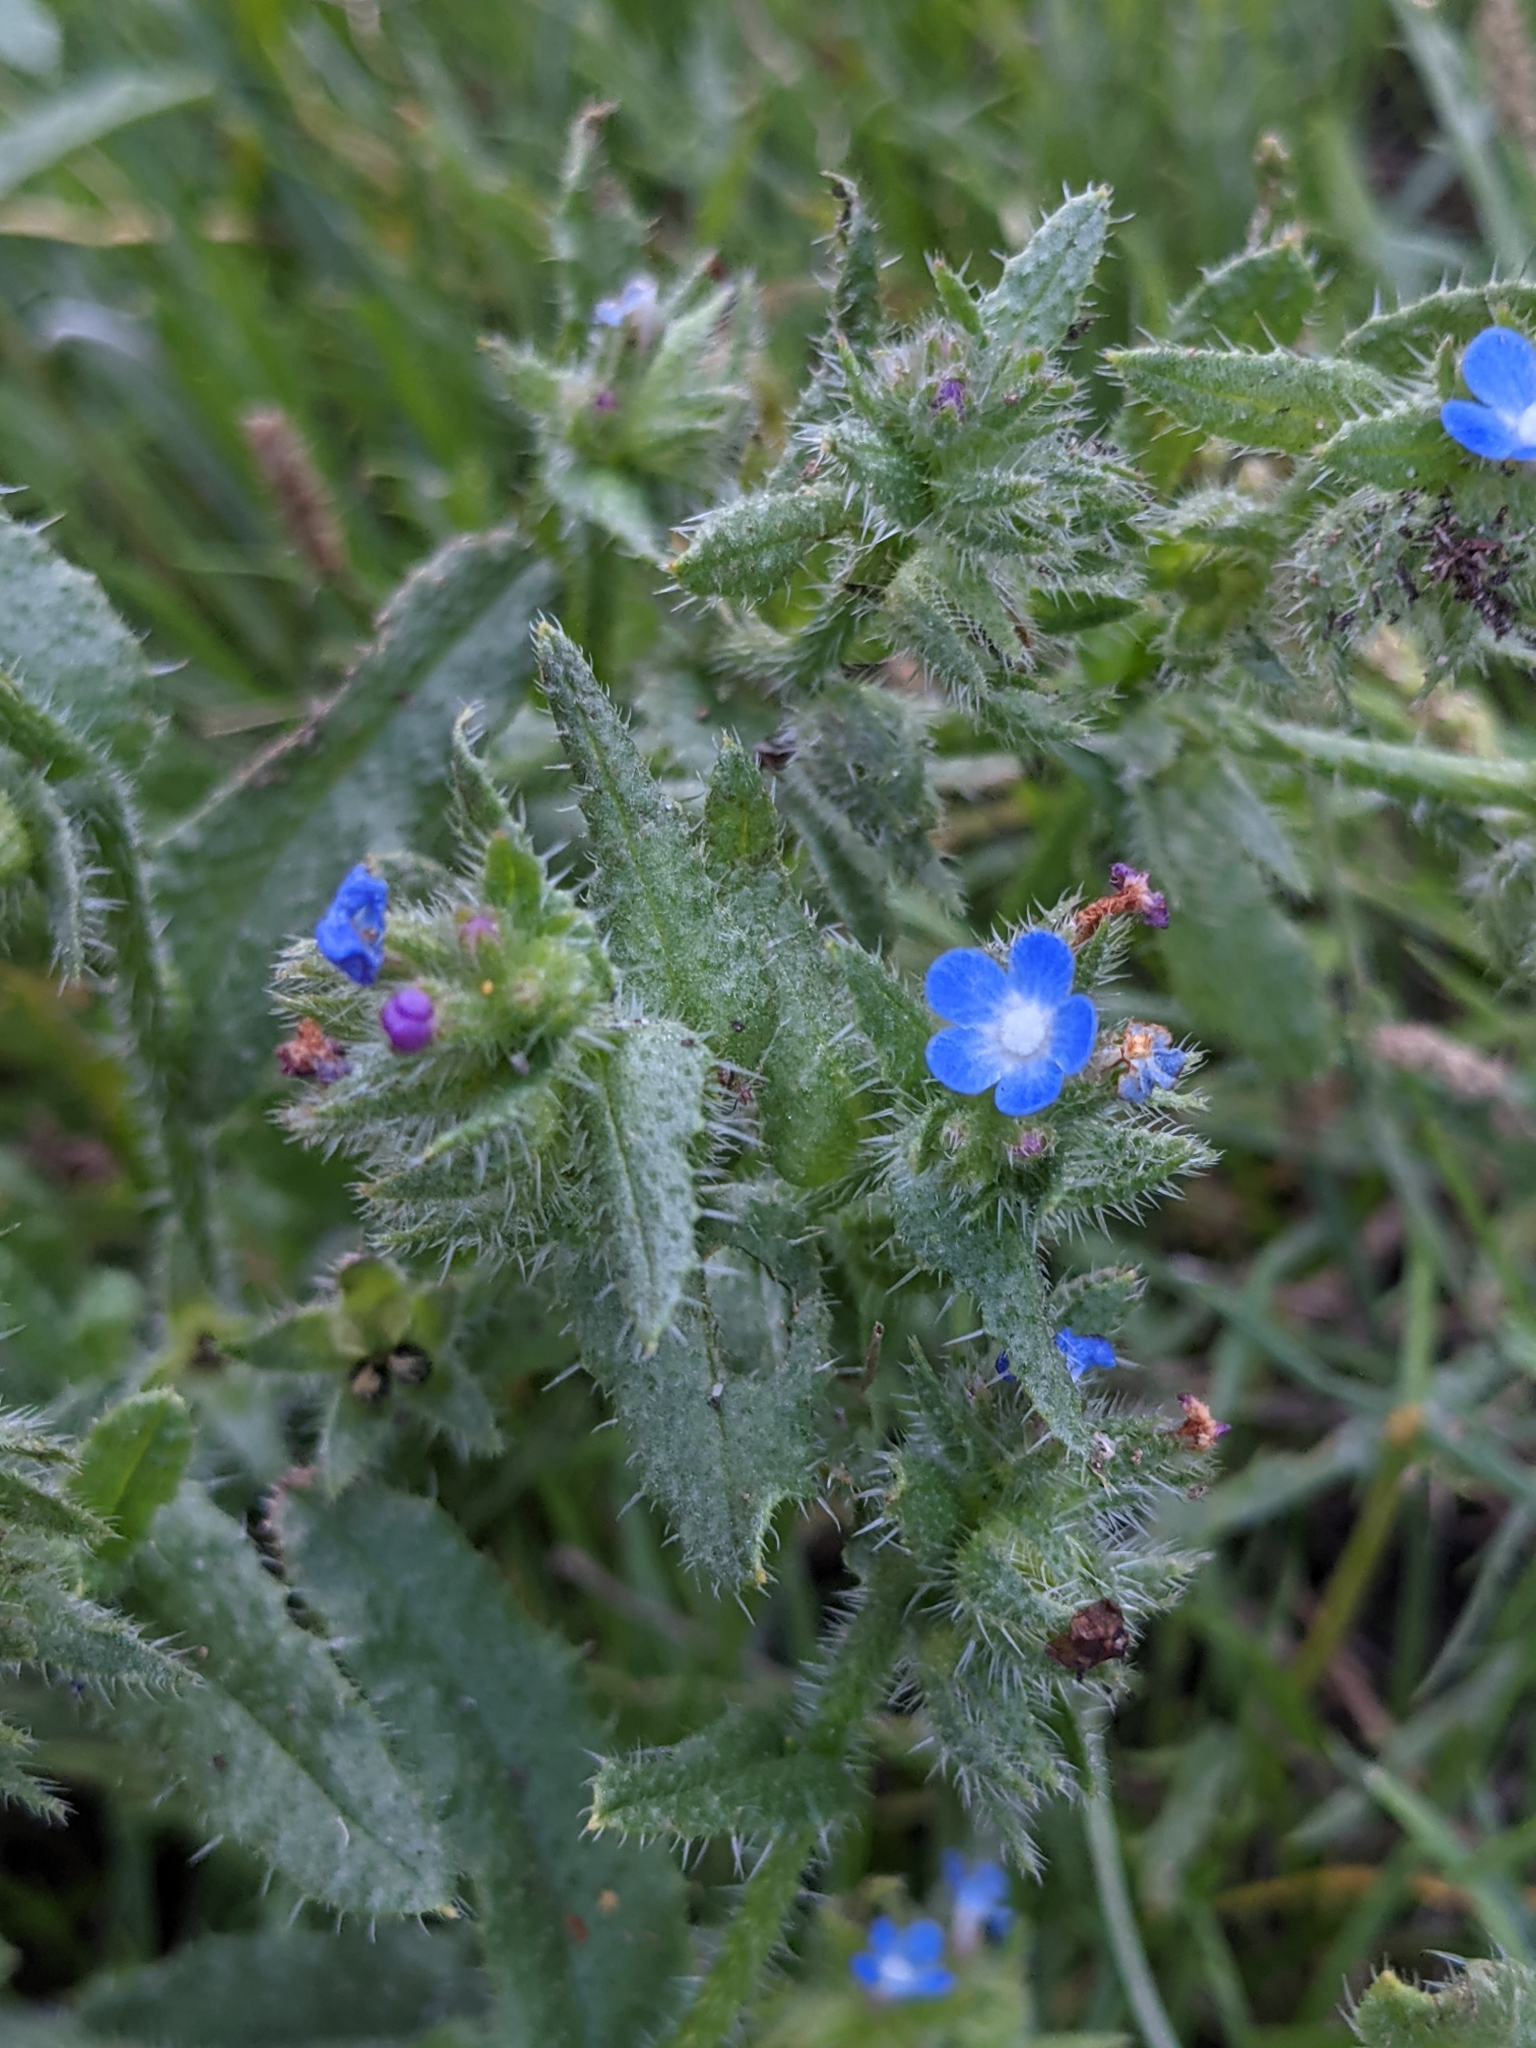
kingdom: Plantae
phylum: Tracheophyta
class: Magnoliopsida
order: Boraginales
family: Boraginaceae
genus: Lycopsis
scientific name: Lycopsis arvensis
